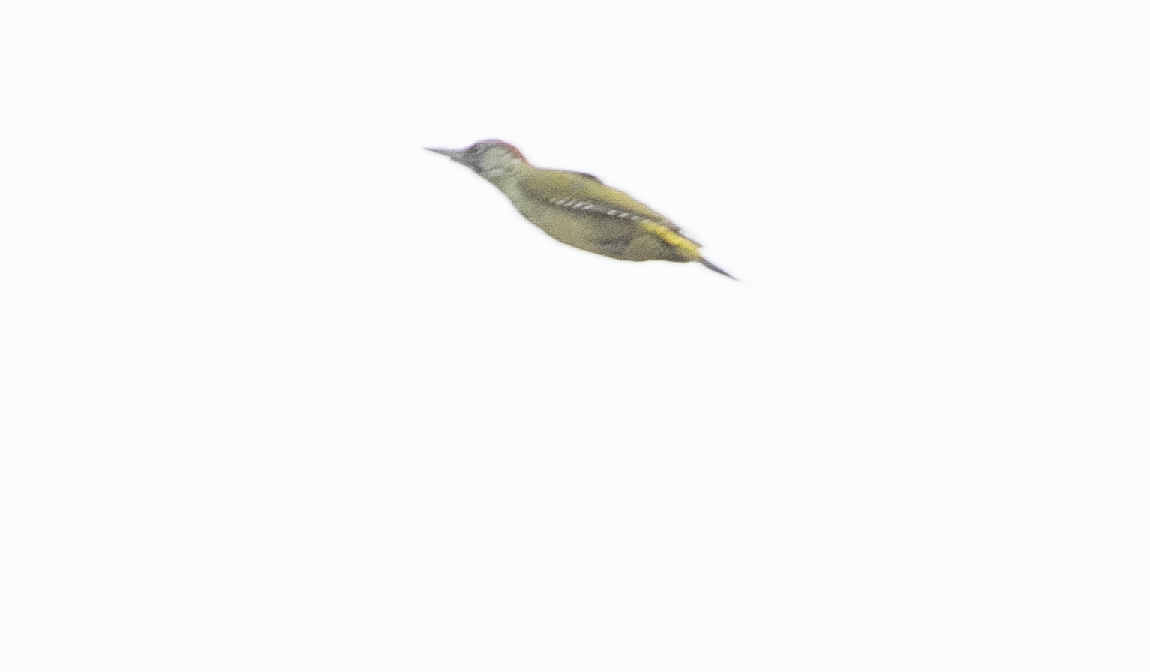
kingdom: Animalia
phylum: Chordata
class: Aves
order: Piciformes
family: Picidae
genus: Picus
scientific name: Picus viridis
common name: European green woodpecker
